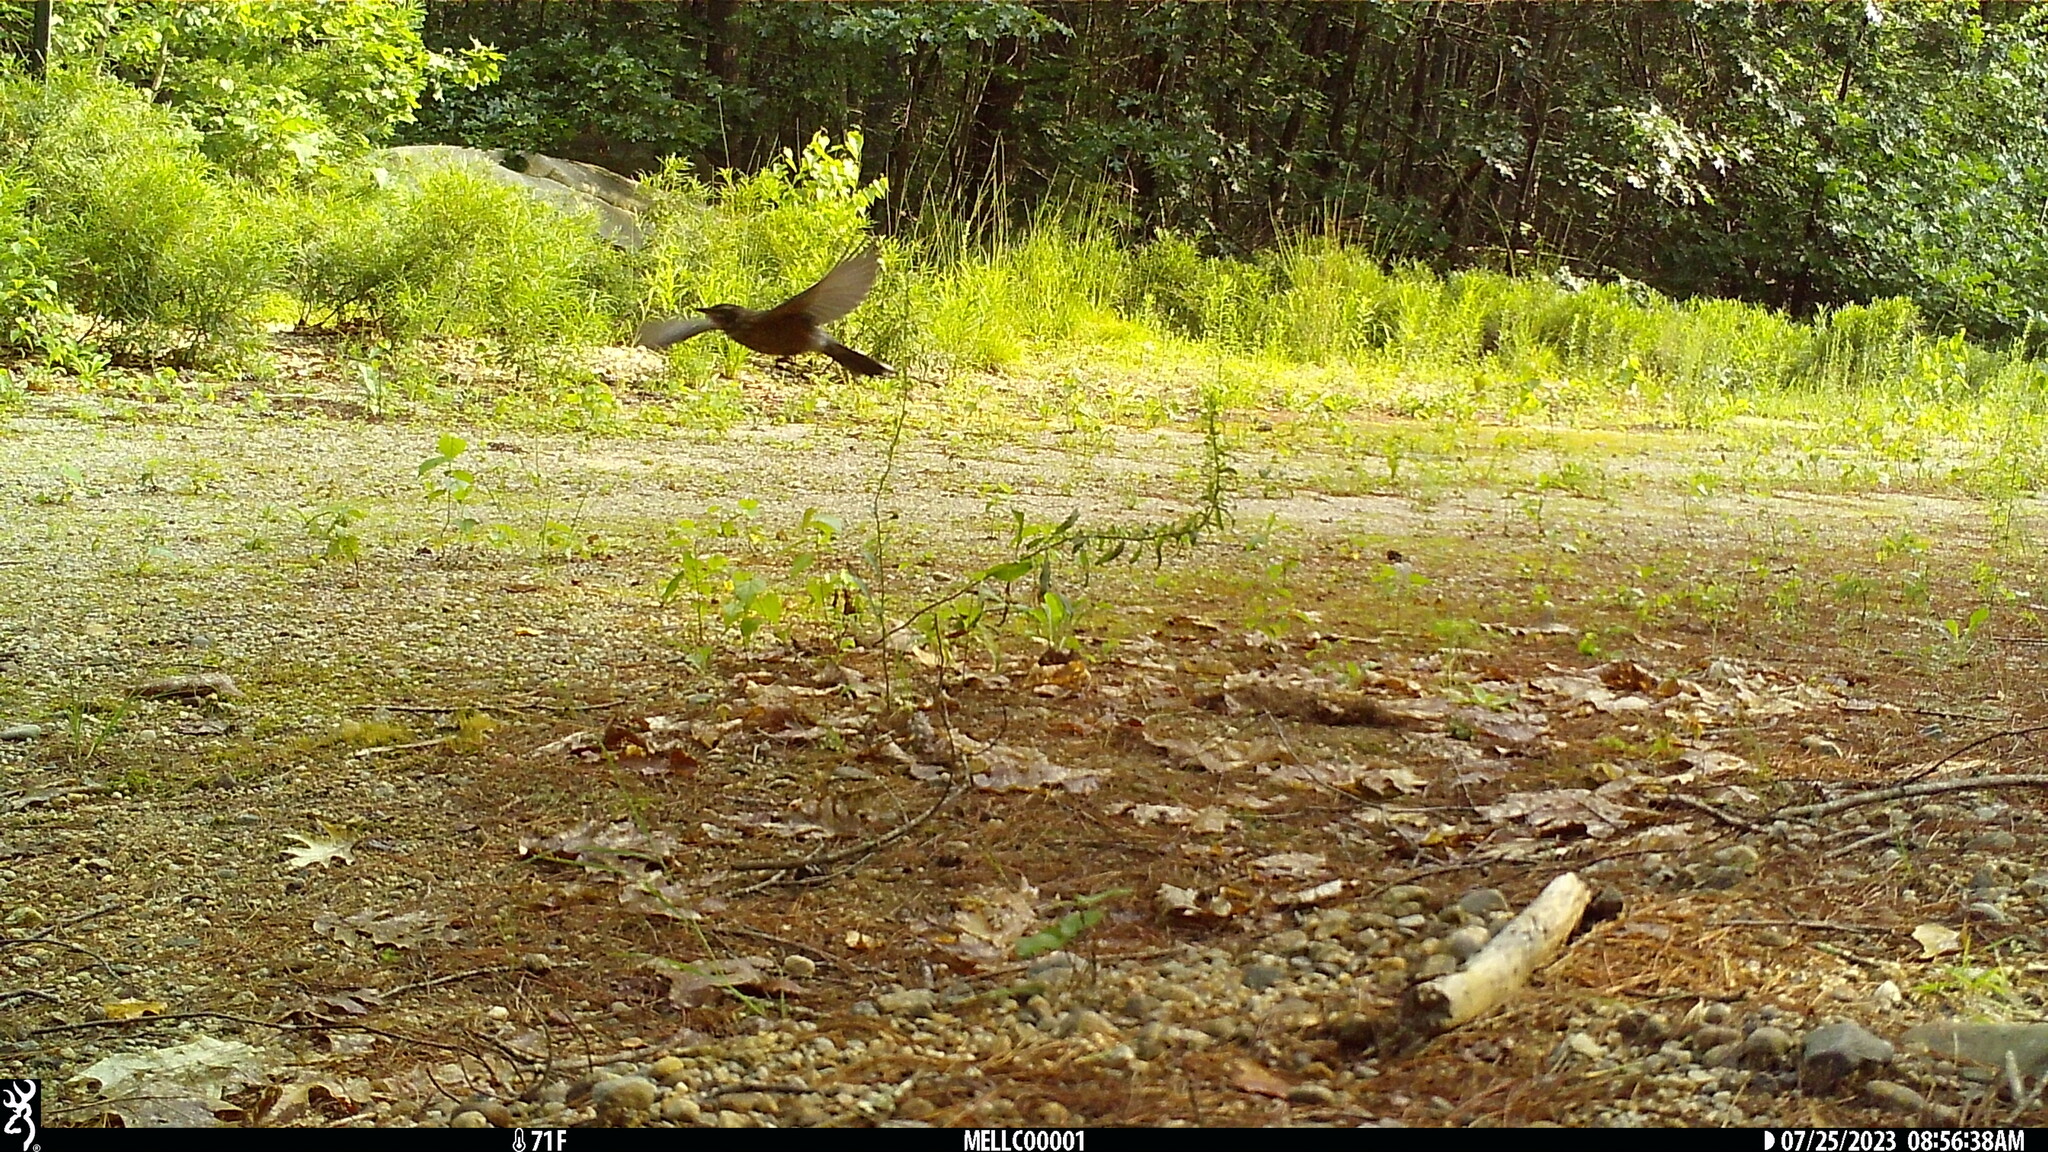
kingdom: Animalia
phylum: Chordata
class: Aves
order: Passeriformes
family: Turdidae
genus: Turdus
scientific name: Turdus migratorius
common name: American robin
